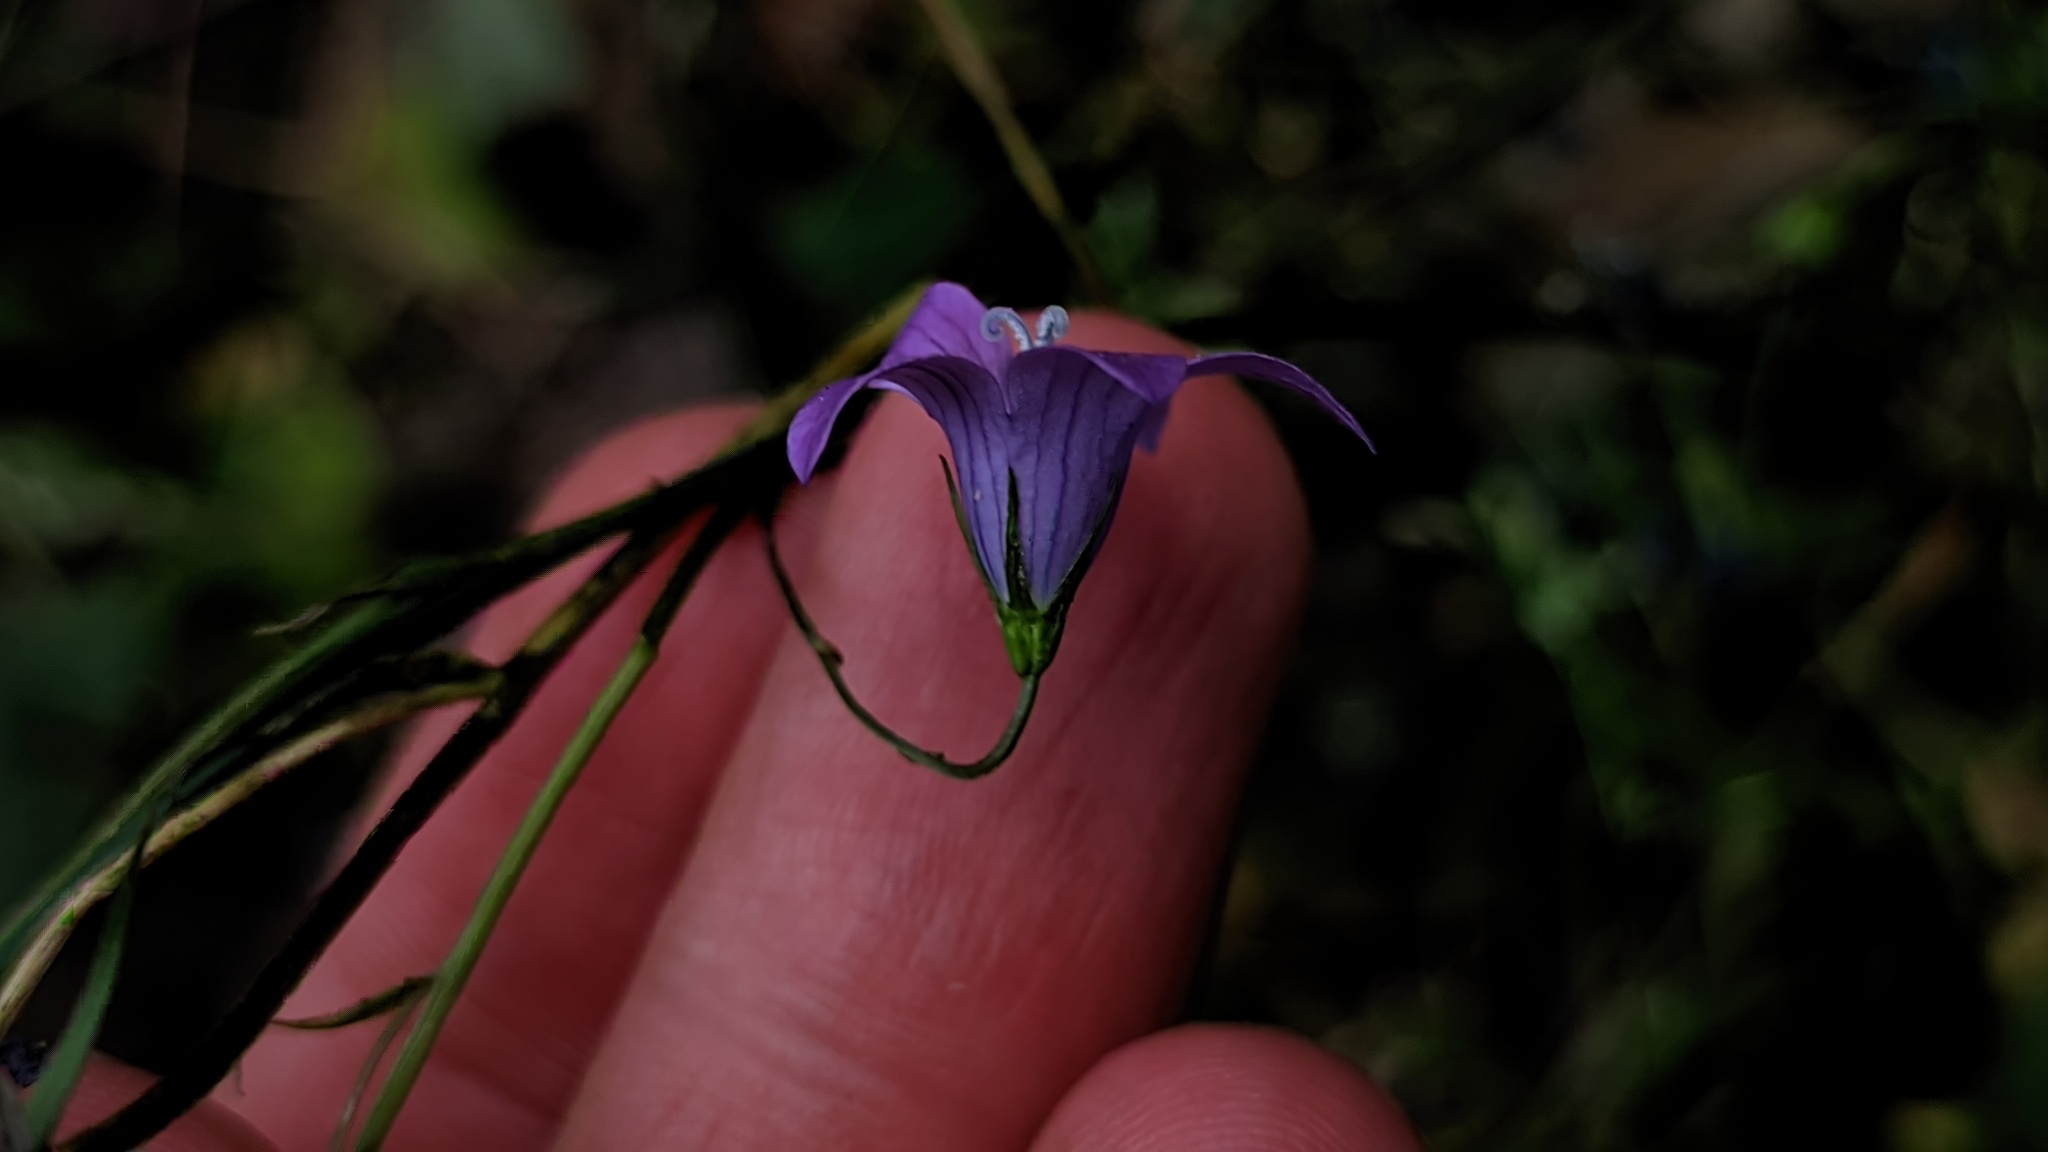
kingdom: Plantae
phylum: Tracheophyta
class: Magnoliopsida
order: Asterales
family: Campanulaceae
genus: Campanula
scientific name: Campanula patula
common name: Spreading bellflower
